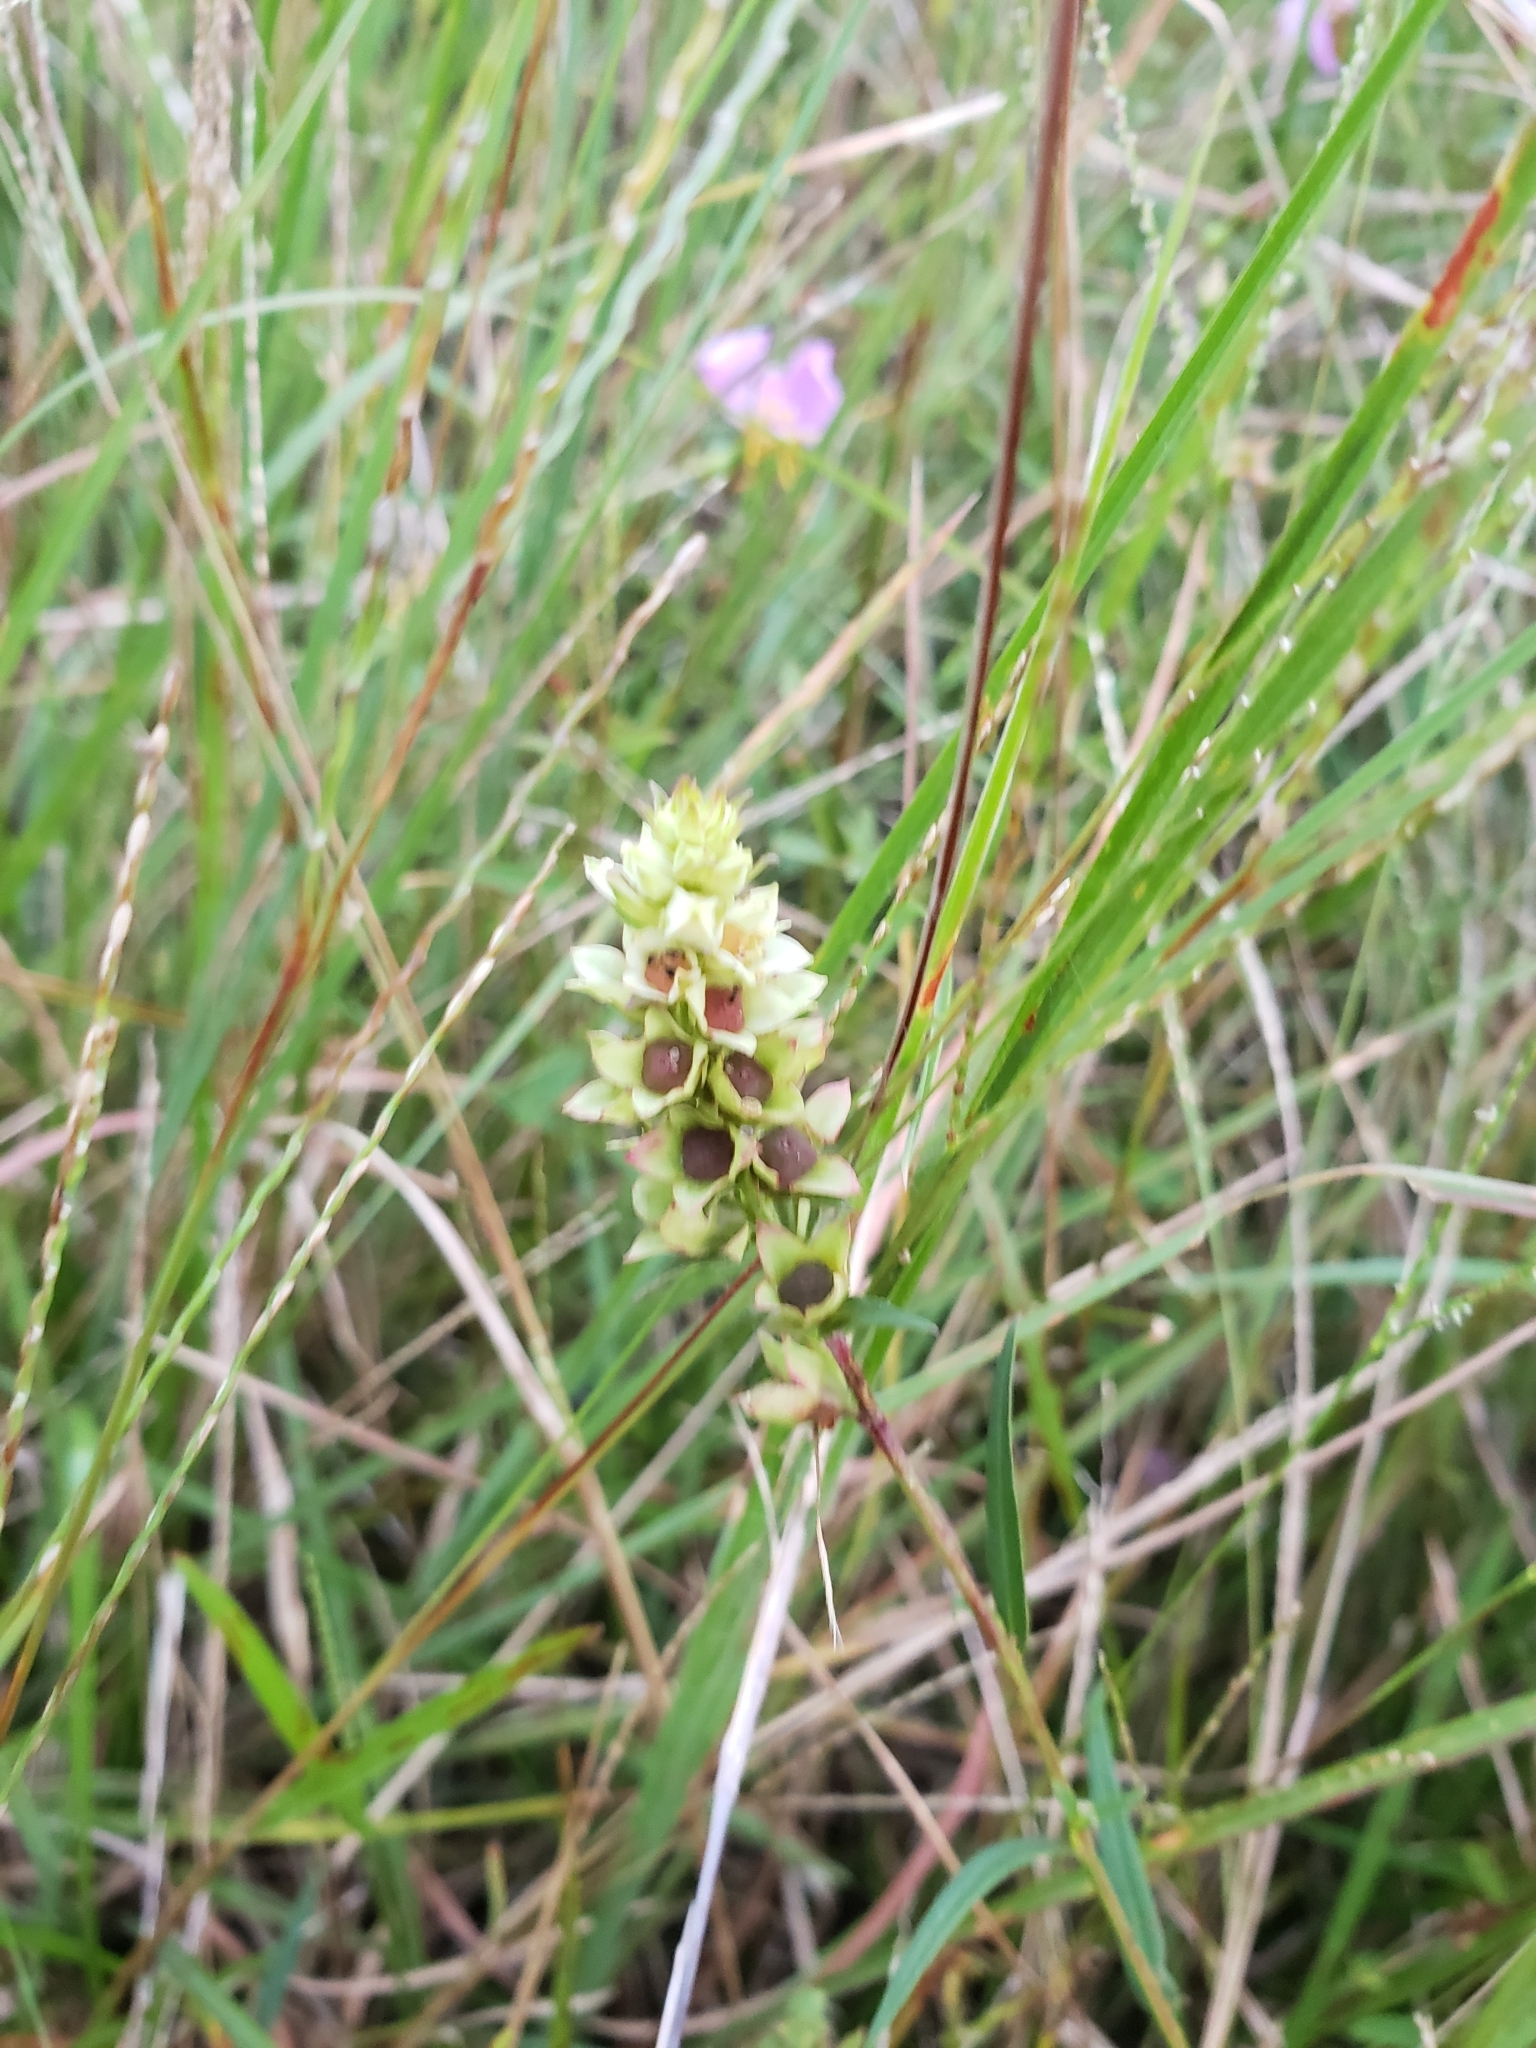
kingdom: Plantae
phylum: Tracheophyta
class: Magnoliopsida
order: Myrtales
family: Onagraceae
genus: Ludwigia
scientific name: Ludwigia suffruticosa
